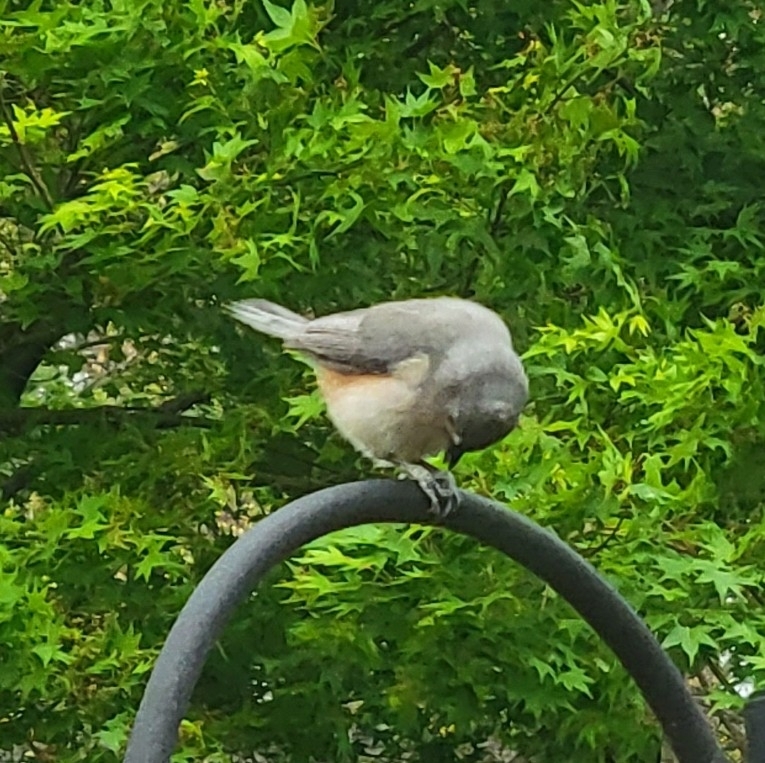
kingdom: Animalia
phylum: Chordata
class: Aves
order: Passeriformes
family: Paridae
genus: Baeolophus
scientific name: Baeolophus bicolor
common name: Tufted titmouse
